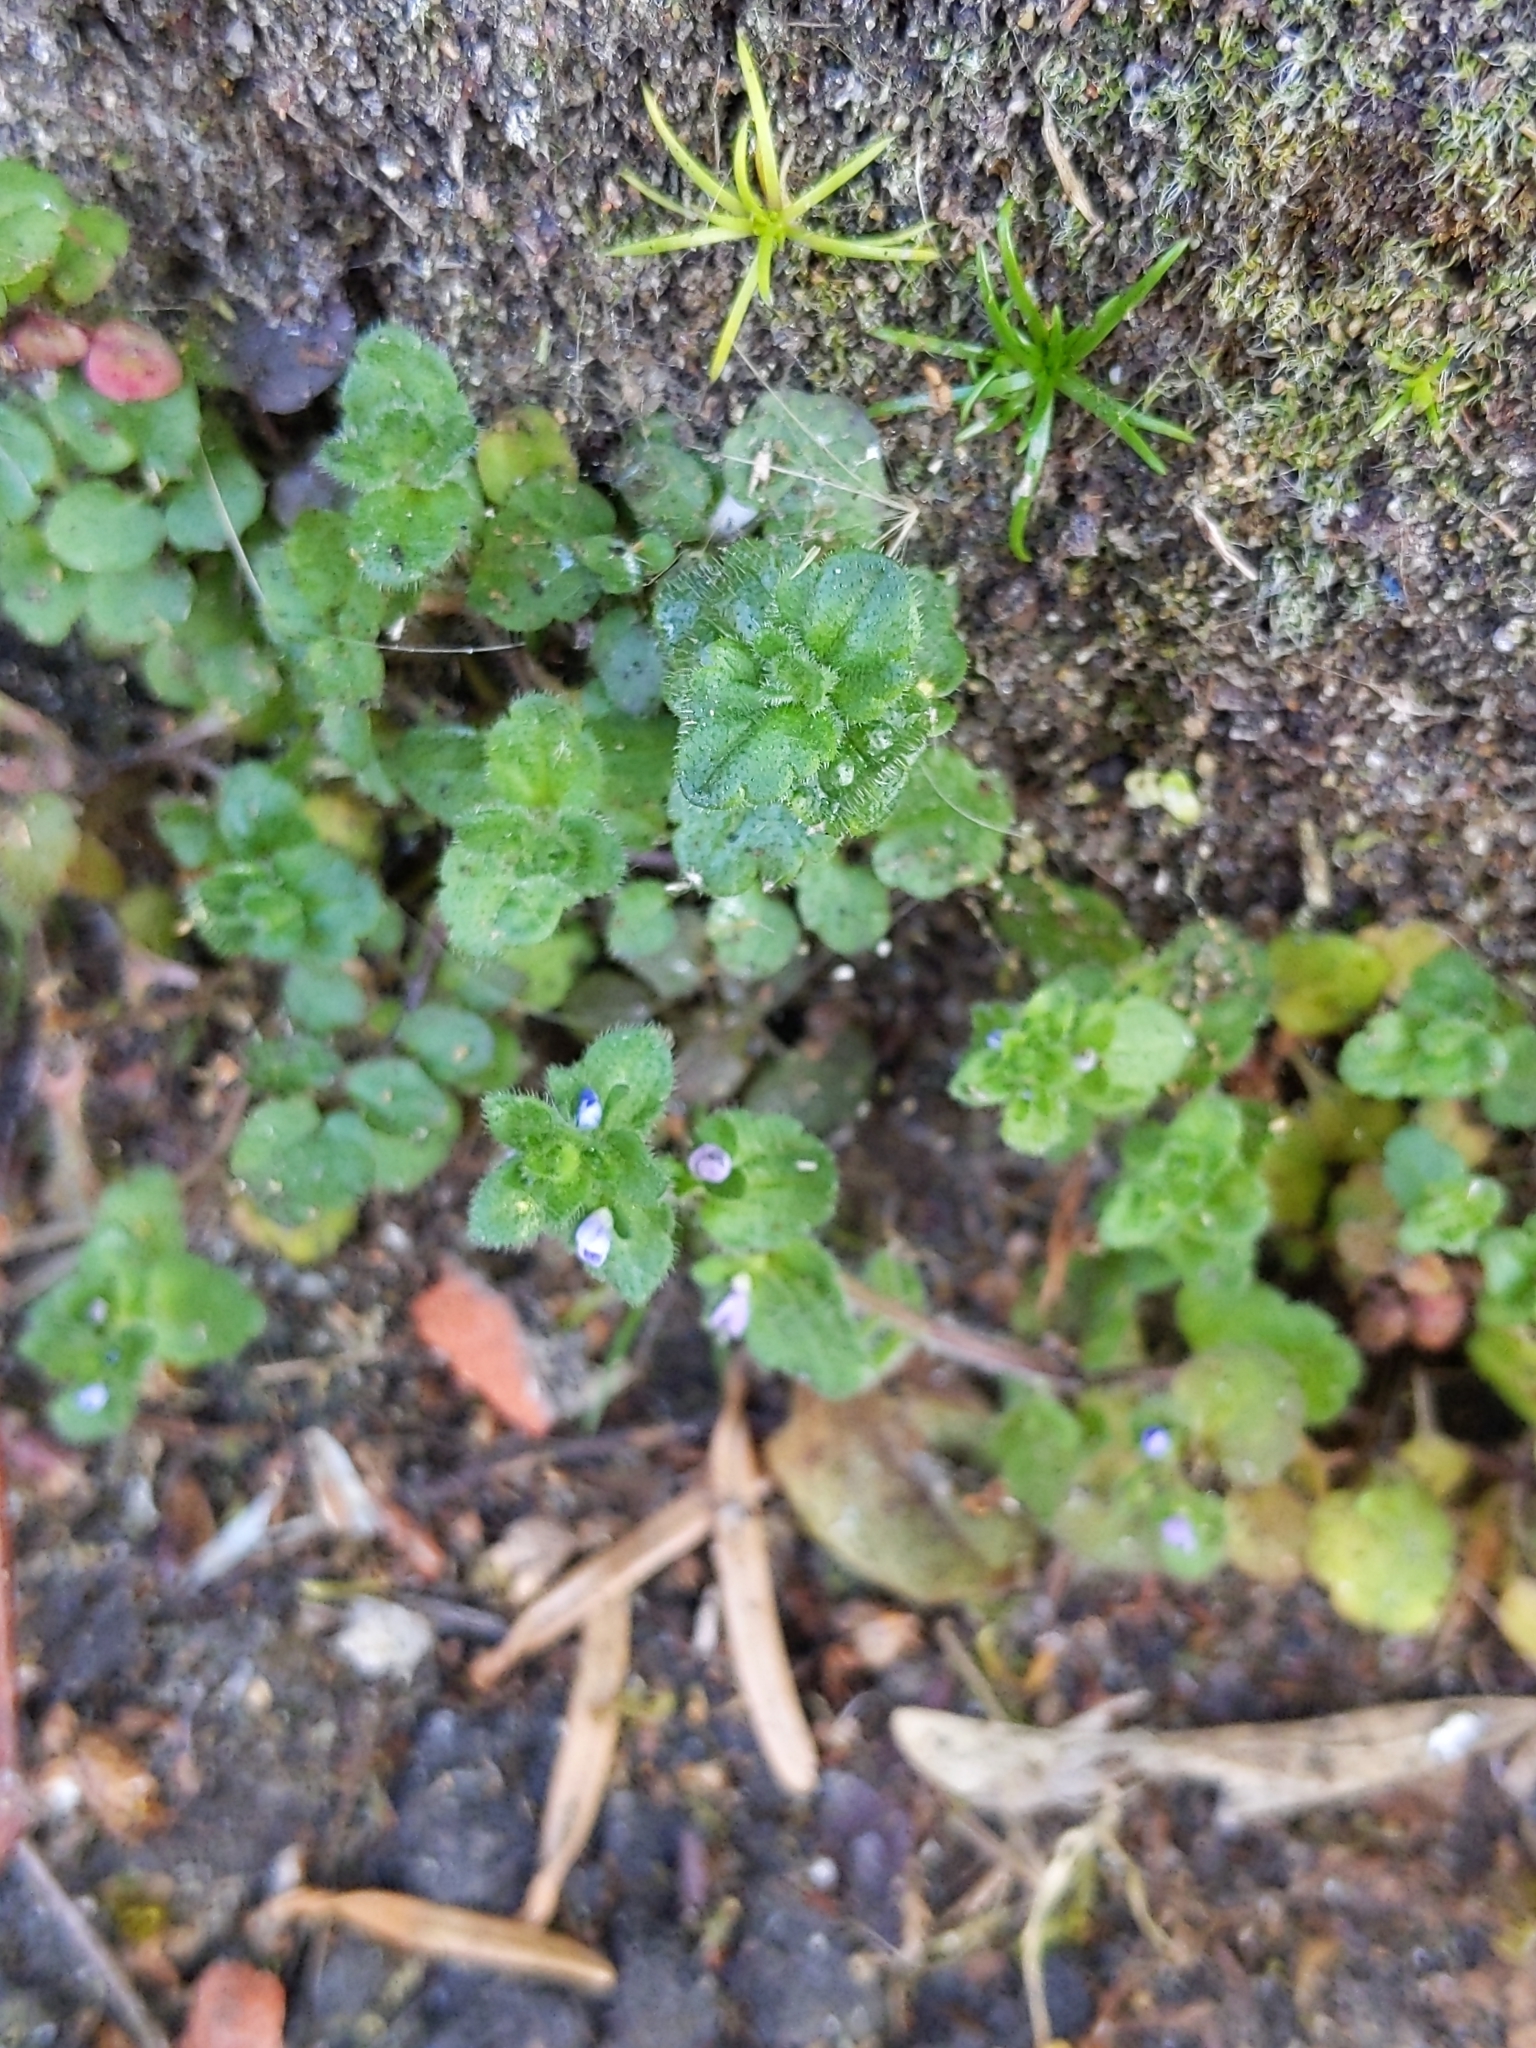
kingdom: Plantae
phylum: Tracheophyta
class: Magnoliopsida
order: Lamiales
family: Plantaginaceae
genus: Veronica
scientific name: Veronica arvensis
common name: Corn speedwell
